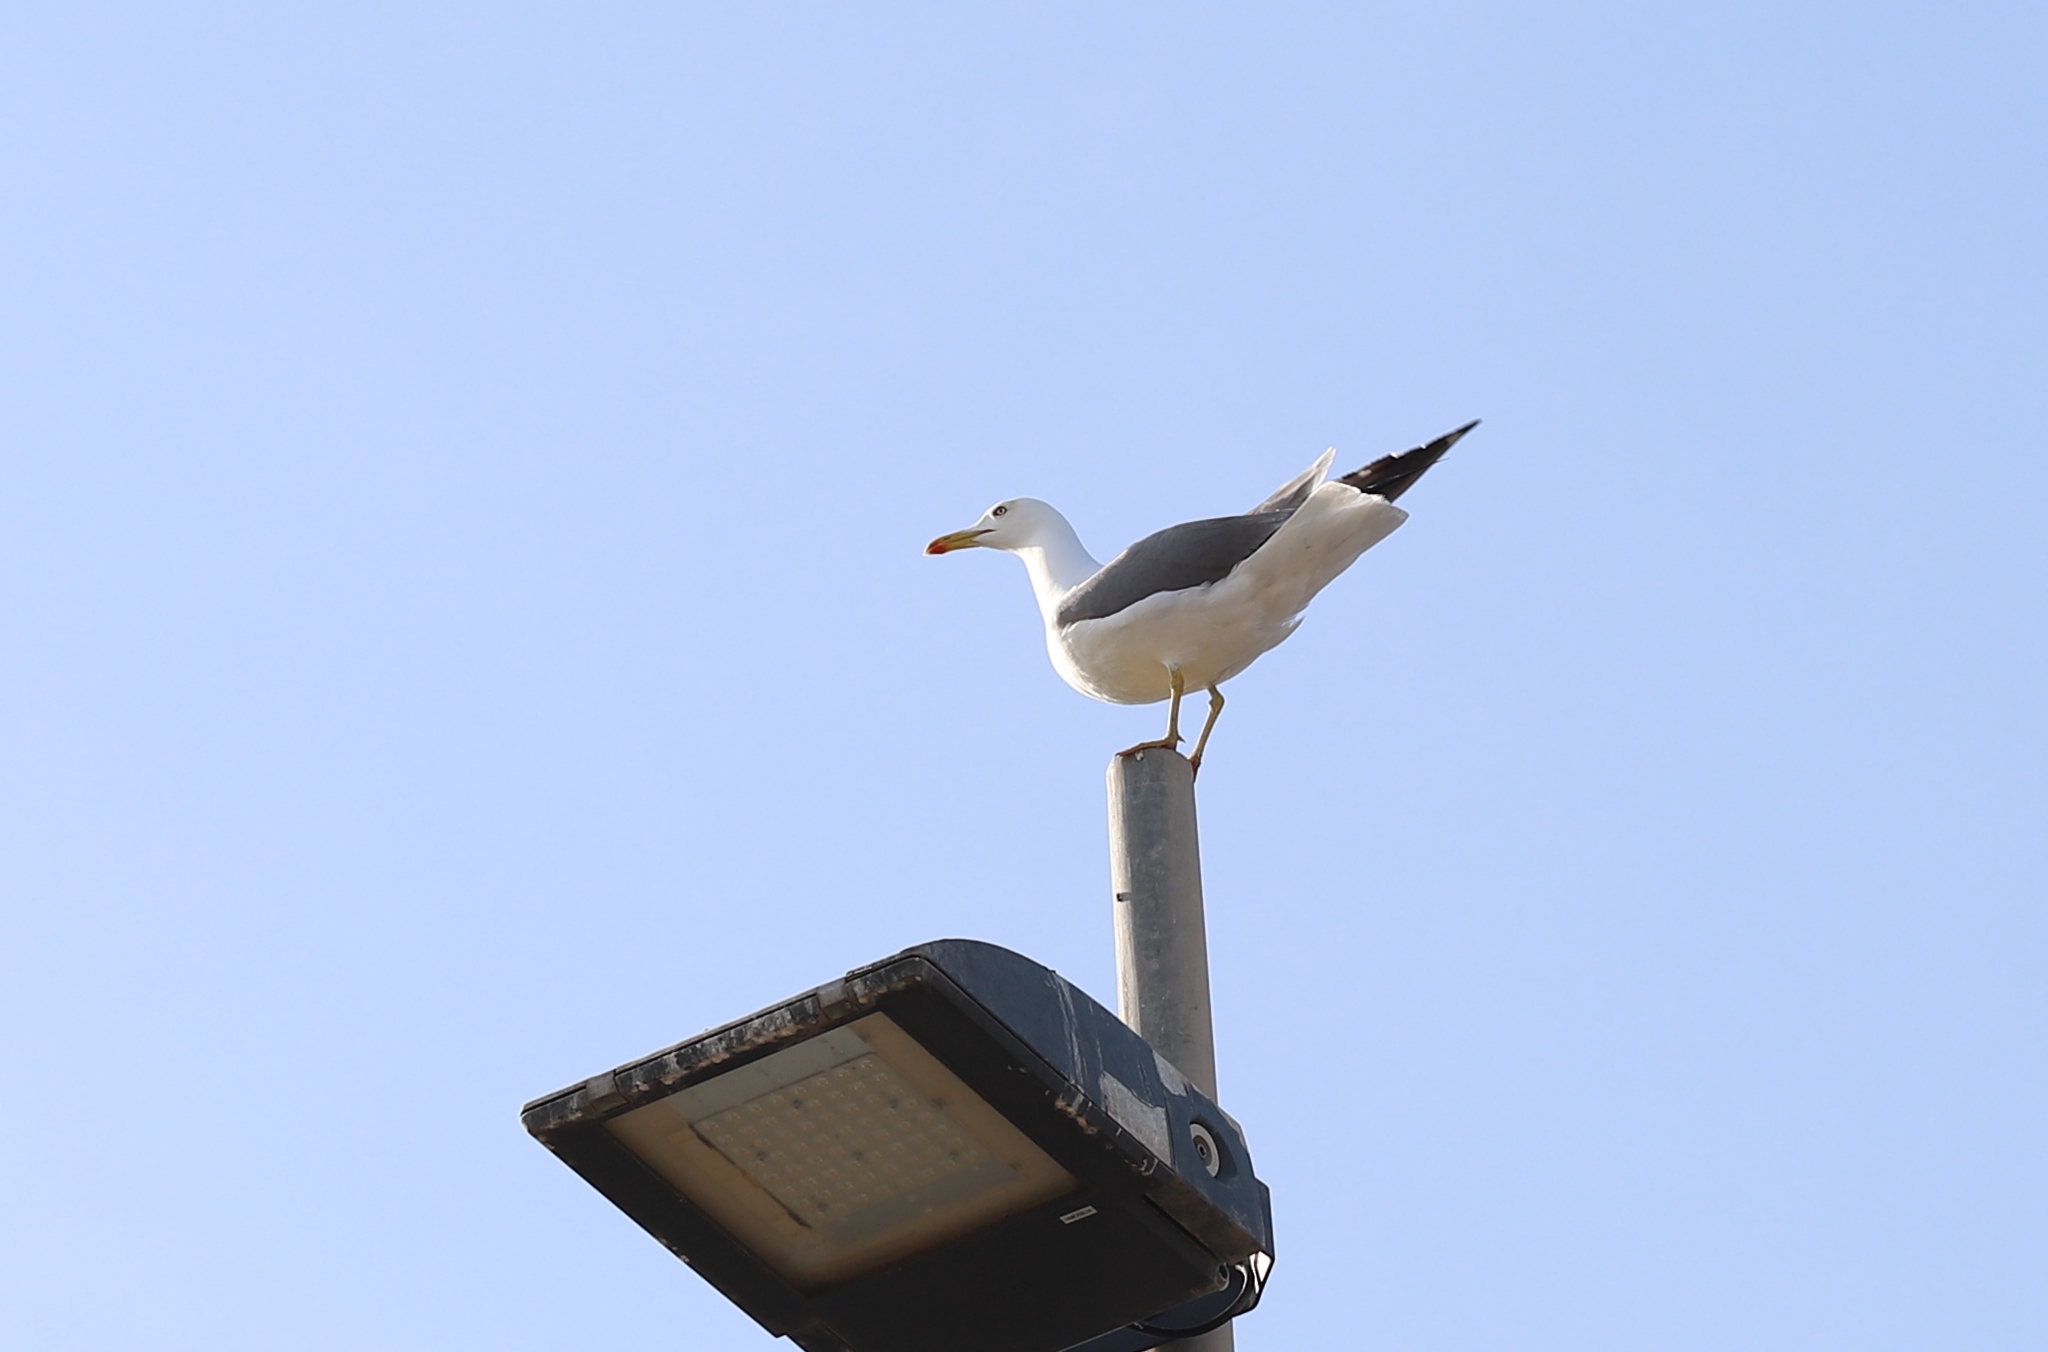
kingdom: Animalia
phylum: Chordata
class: Aves
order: Charadriiformes
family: Laridae
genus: Larus
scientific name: Larus fuscus
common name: Lesser black-backed gull
